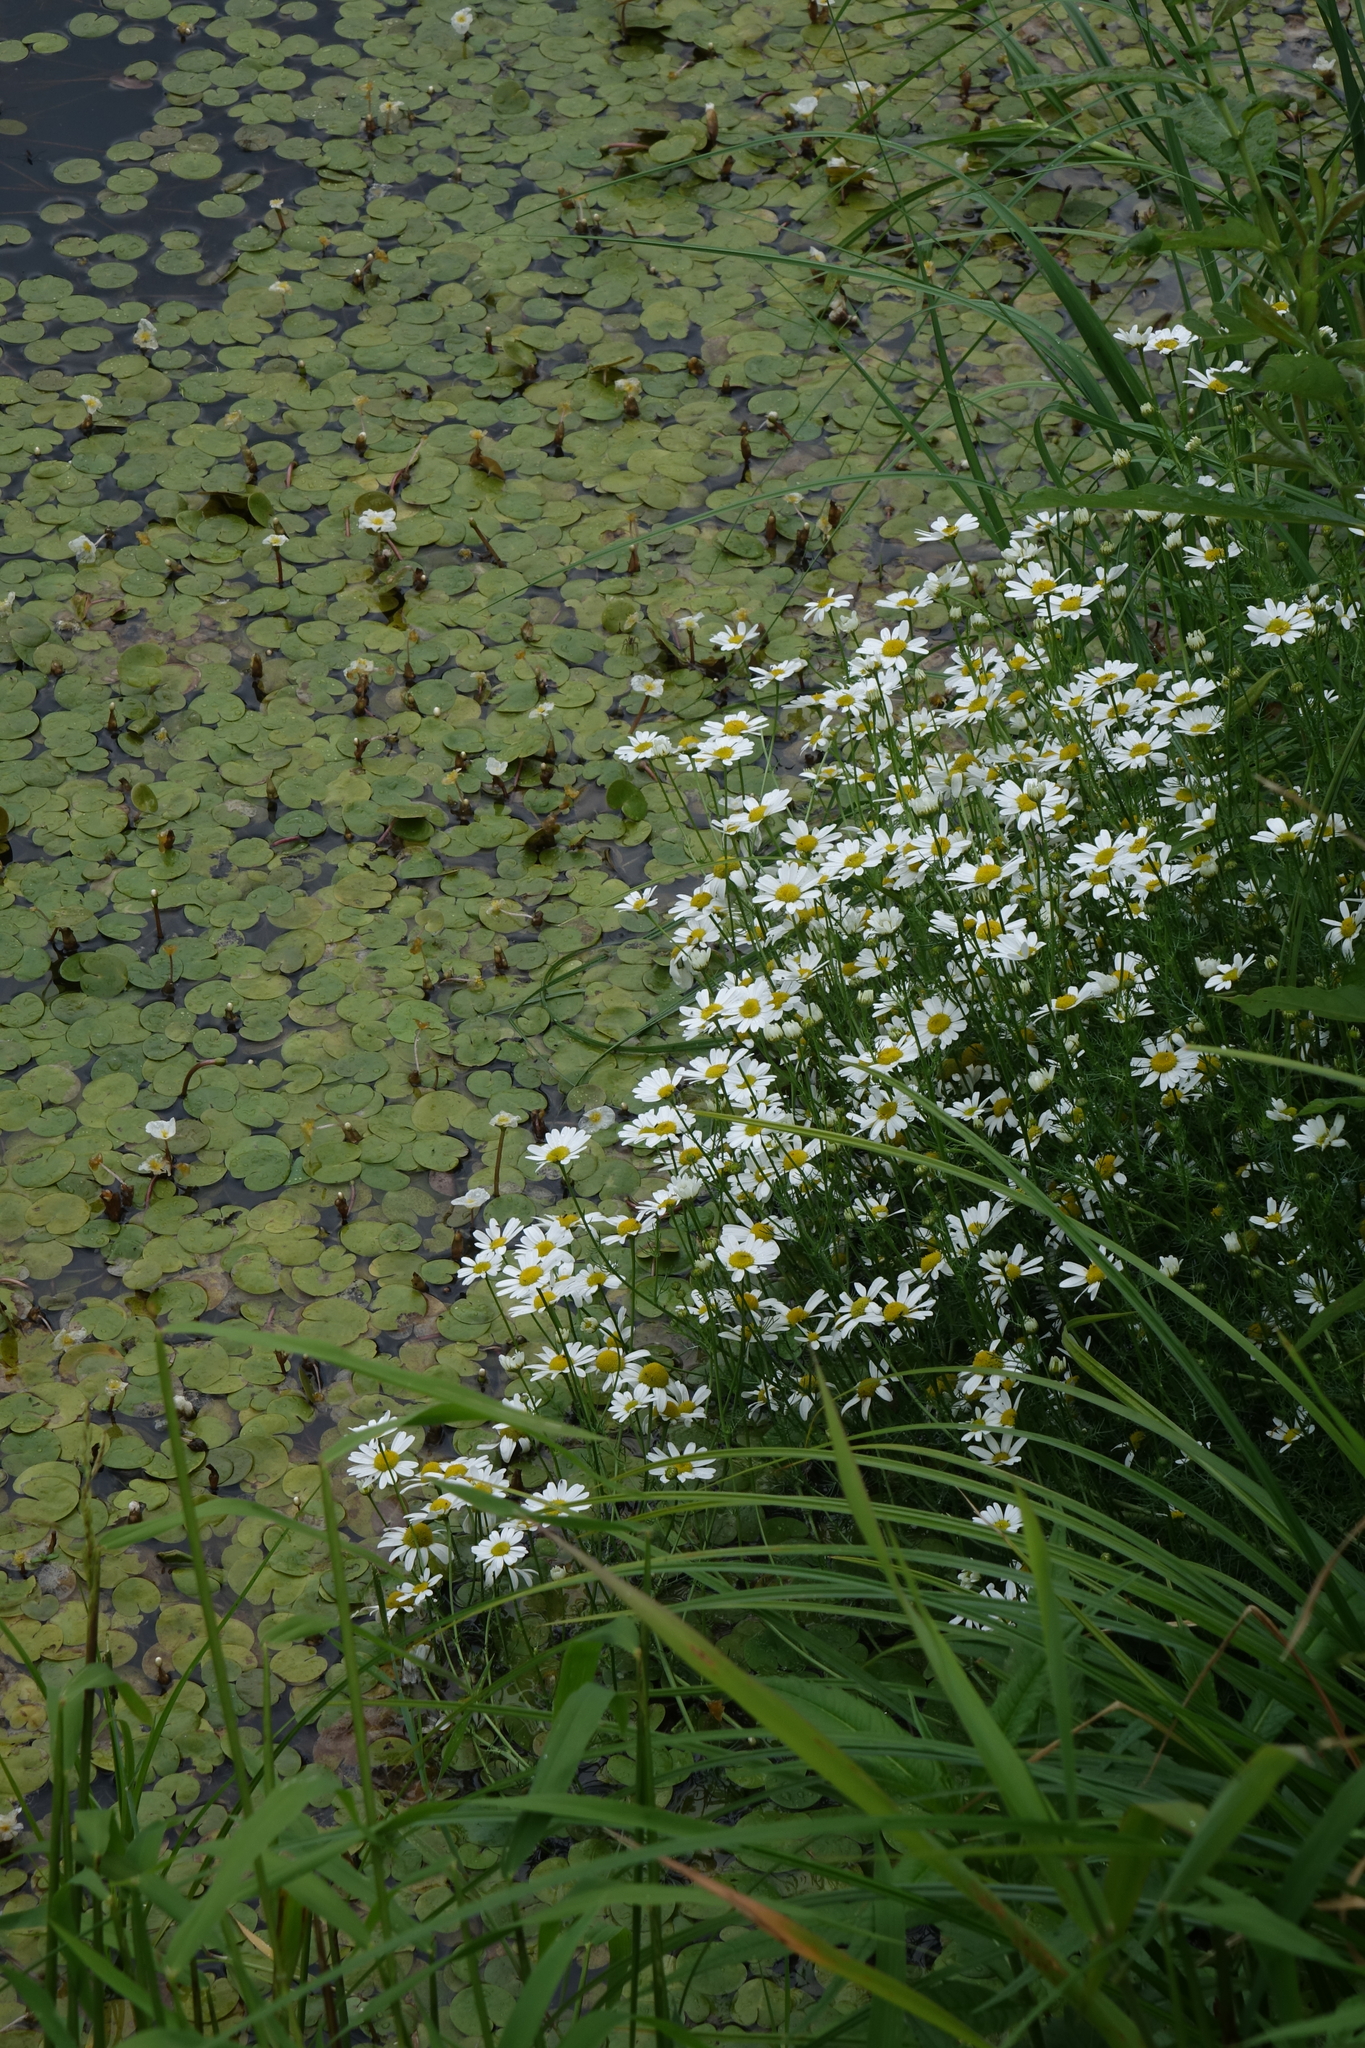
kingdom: Plantae
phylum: Tracheophyta
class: Liliopsida
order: Alismatales
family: Hydrocharitaceae
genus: Hydrocharis
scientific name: Hydrocharis morsus-ranae
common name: Frogbit
